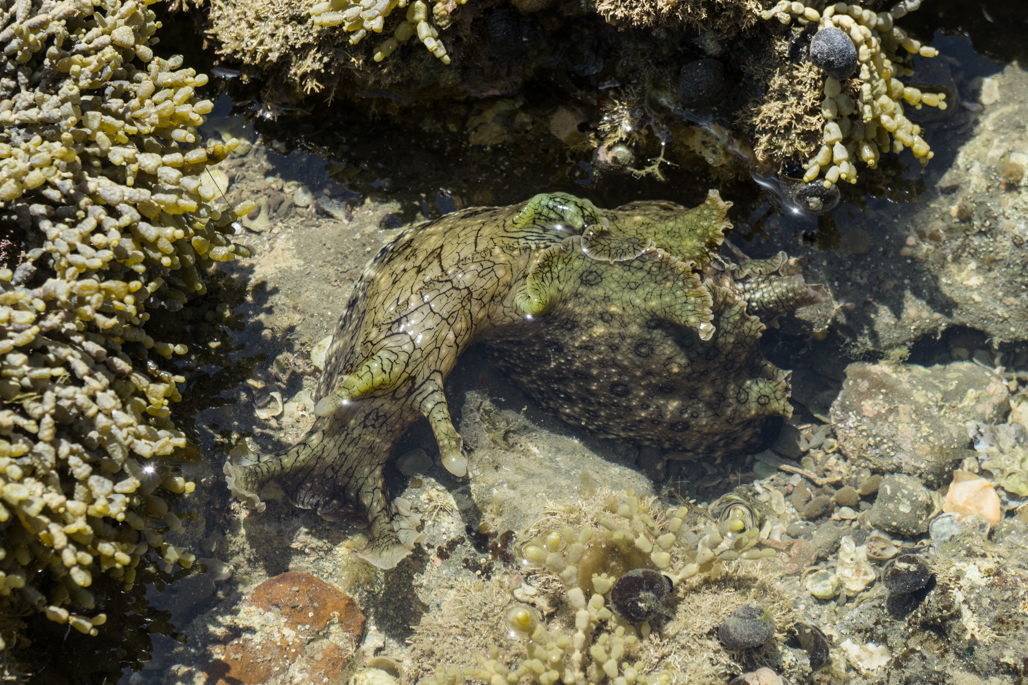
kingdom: Animalia
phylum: Mollusca
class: Gastropoda
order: Aplysiida
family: Aplysiidae
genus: Aplysia
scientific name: Aplysia argus
